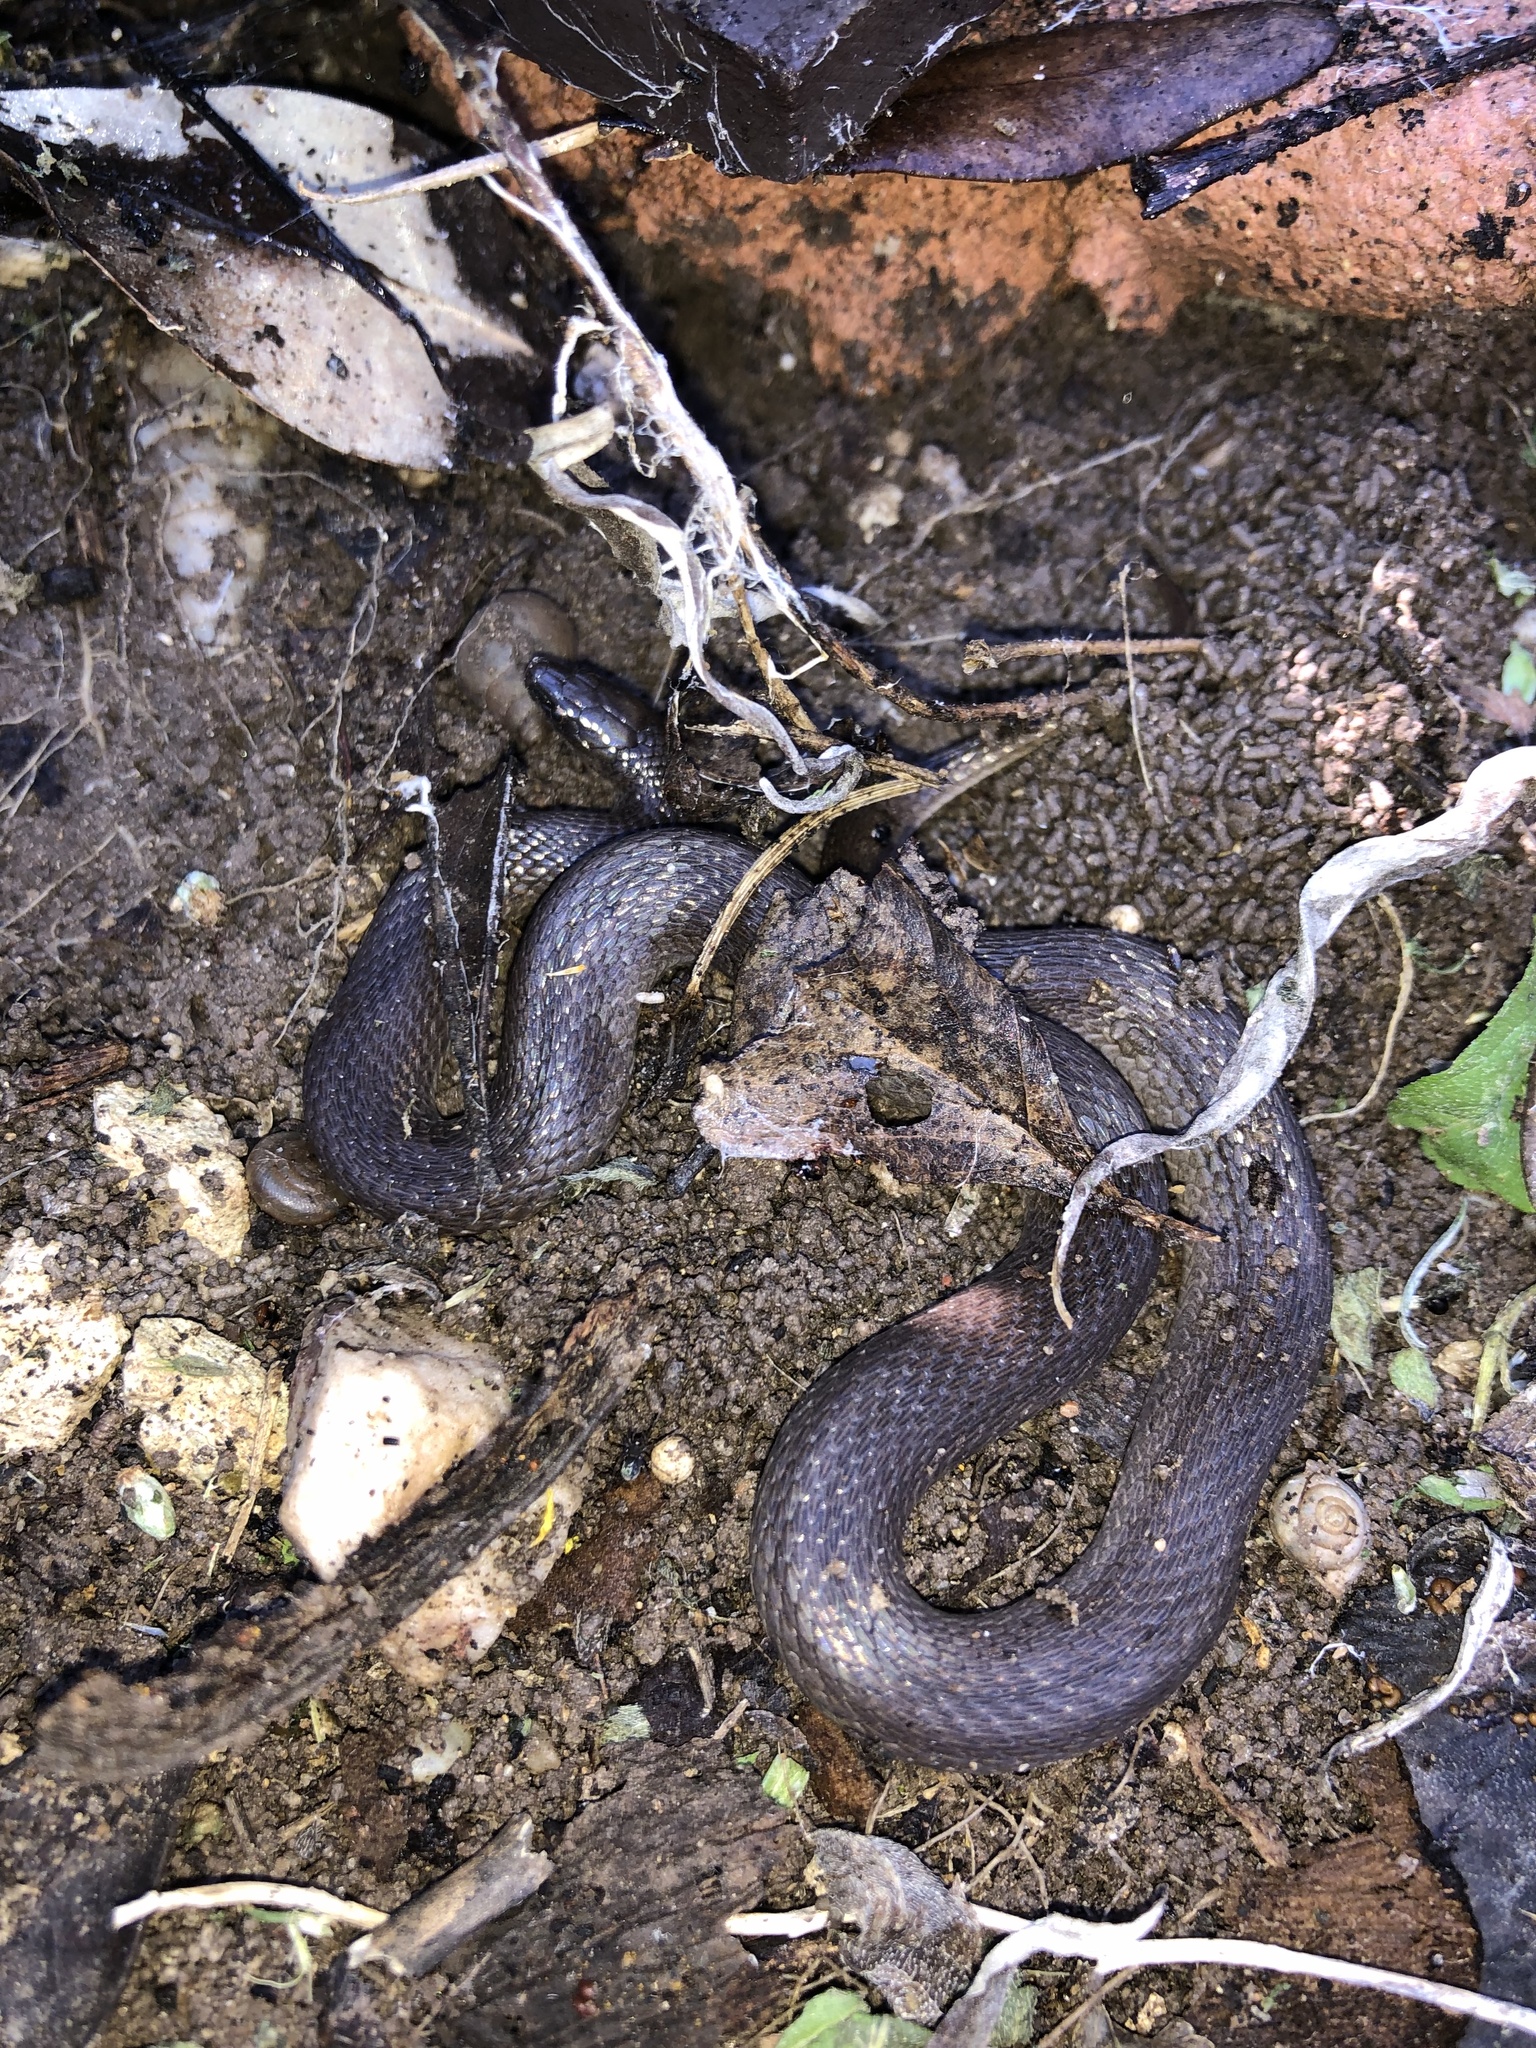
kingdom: Animalia
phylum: Chordata
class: Squamata
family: Colubridae
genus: Haldea
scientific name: Haldea striatula
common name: Rough earth snake
